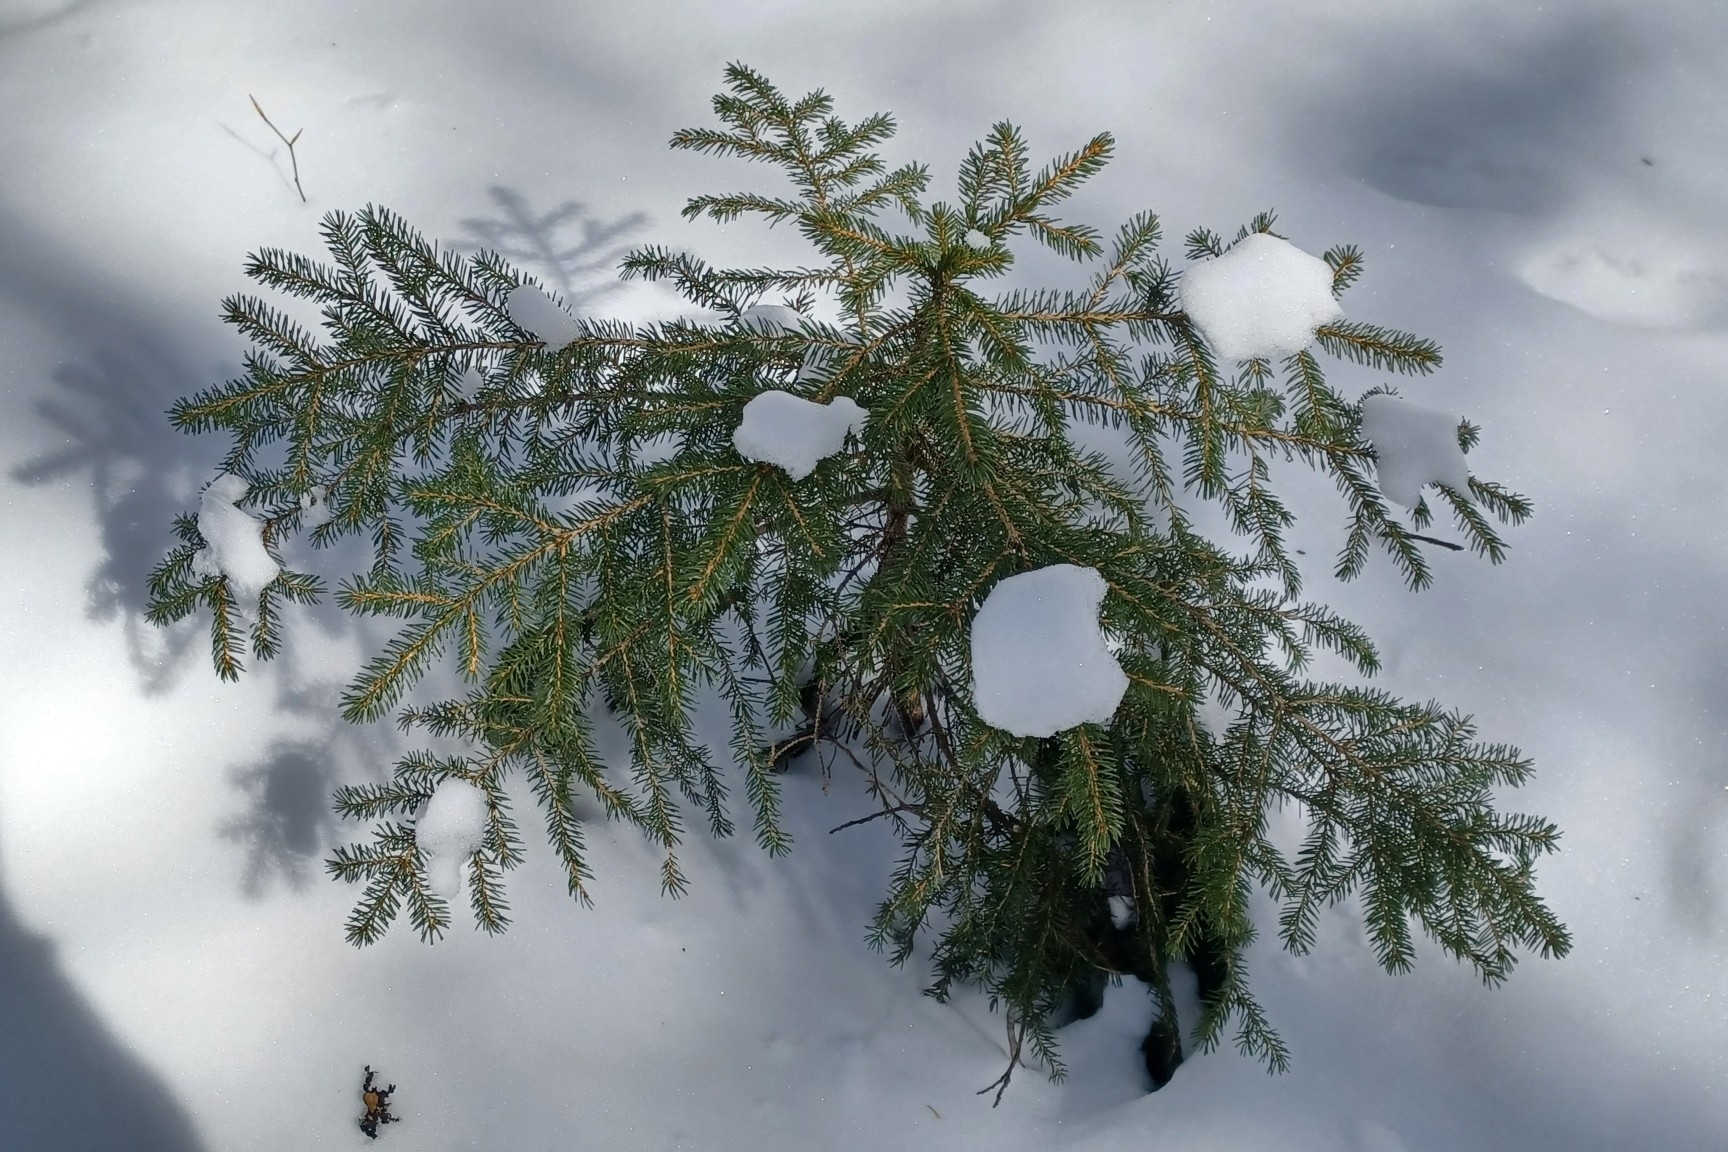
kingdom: Plantae
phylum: Tracheophyta
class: Pinopsida
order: Pinales
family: Pinaceae
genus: Picea
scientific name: Picea rubens
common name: Red spruce
